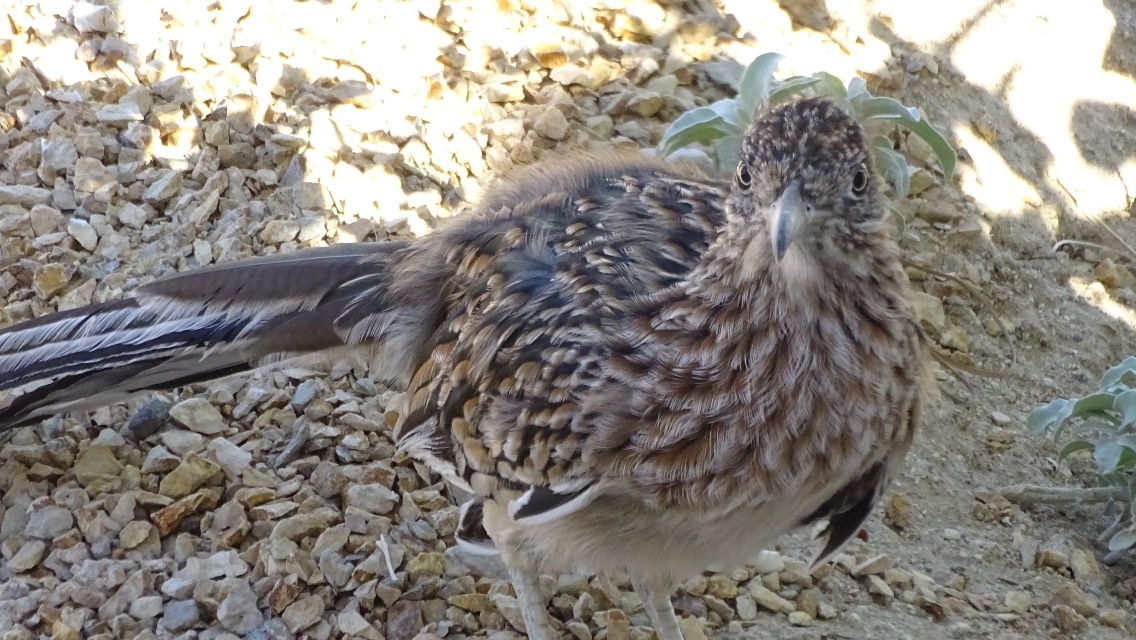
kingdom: Animalia
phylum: Chordata
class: Aves
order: Cuculiformes
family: Cuculidae
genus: Geococcyx
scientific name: Geococcyx californianus
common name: Greater roadrunner
